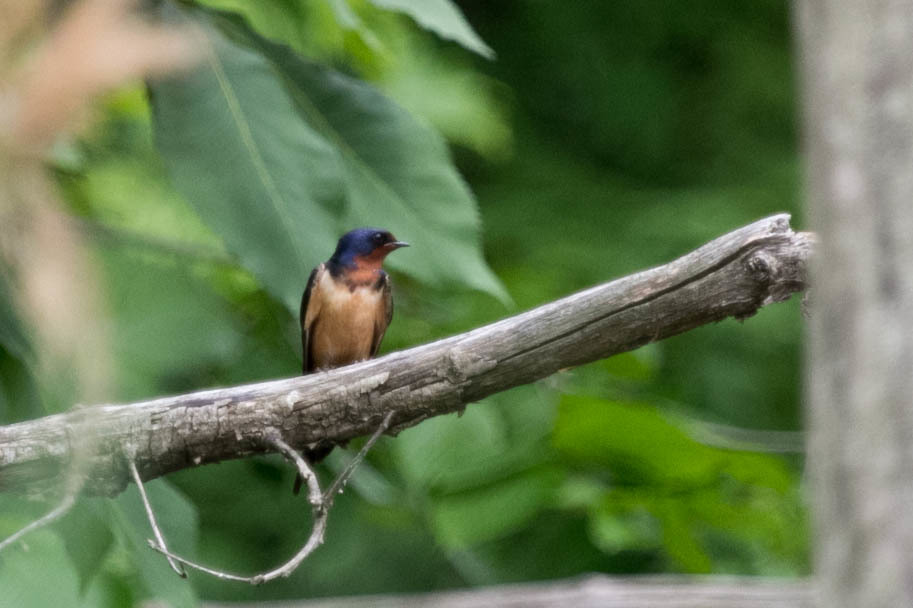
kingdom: Animalia
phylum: Chordata
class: Aves
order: Passeriformes
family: Hirundinidae
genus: Hirundo
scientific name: Hirundo rustica
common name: Barn swallow
